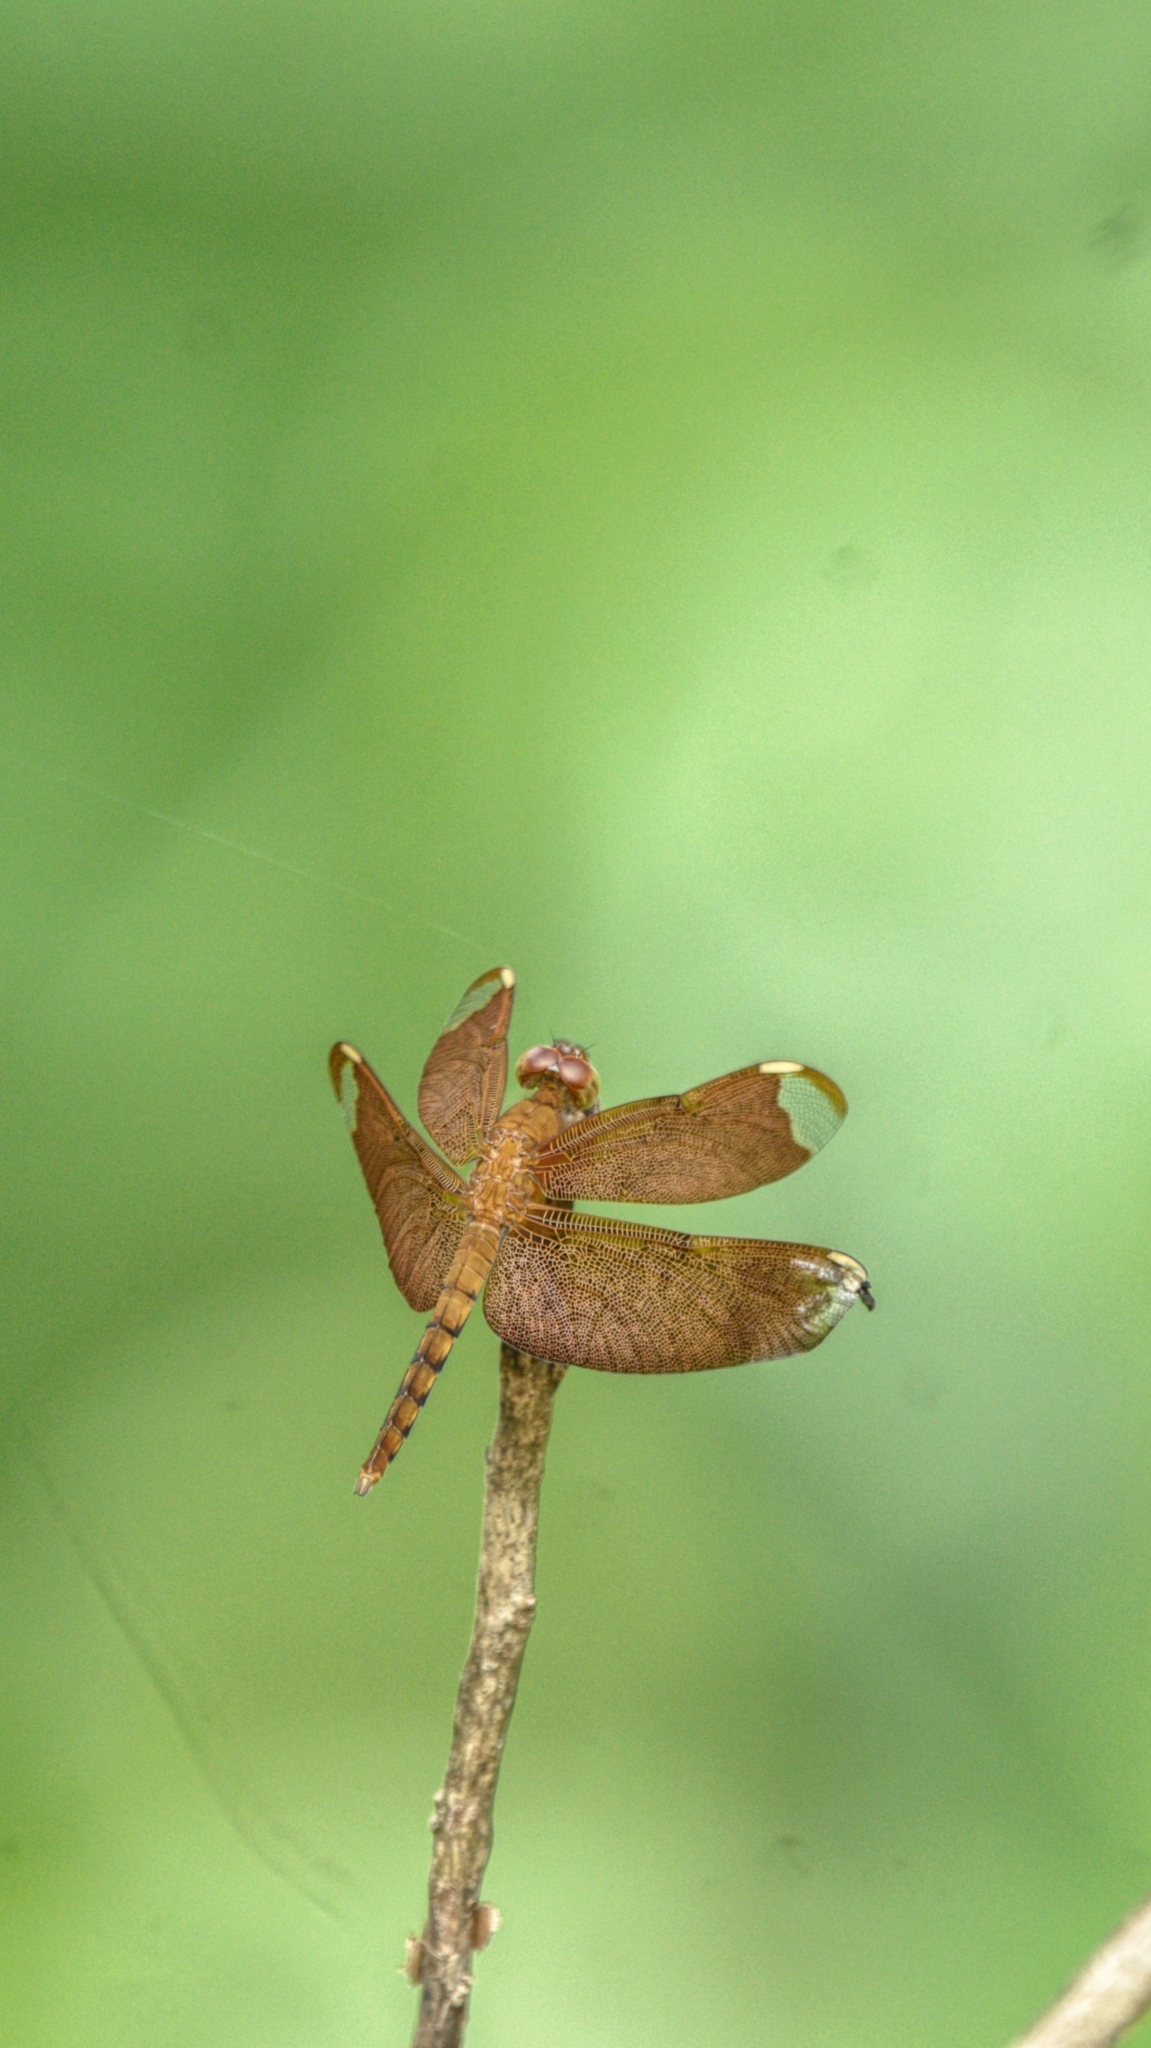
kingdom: Animalia
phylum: Arthropoda
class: Insecta
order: Odonata
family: Libellulidae
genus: Neurothemis
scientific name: Neurothemis fulvia
